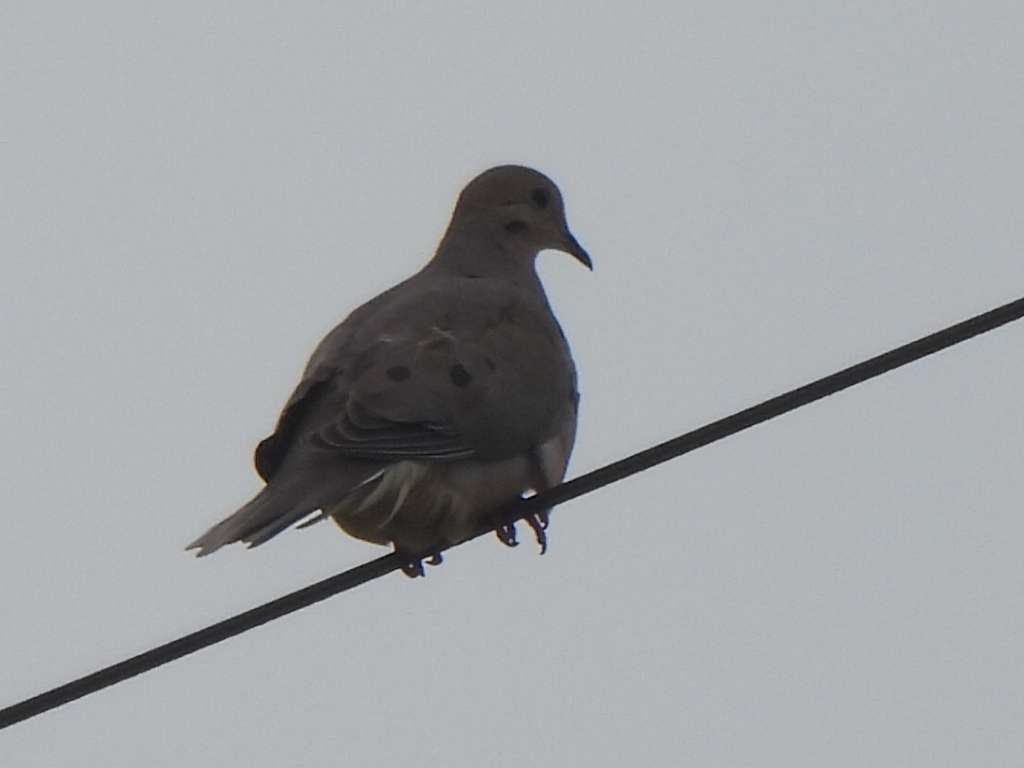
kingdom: Animalia
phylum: Chordata
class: Aves
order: Columbiformes
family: Columbidae
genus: Zenaida
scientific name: Zenaida macroura
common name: Mourning dove
